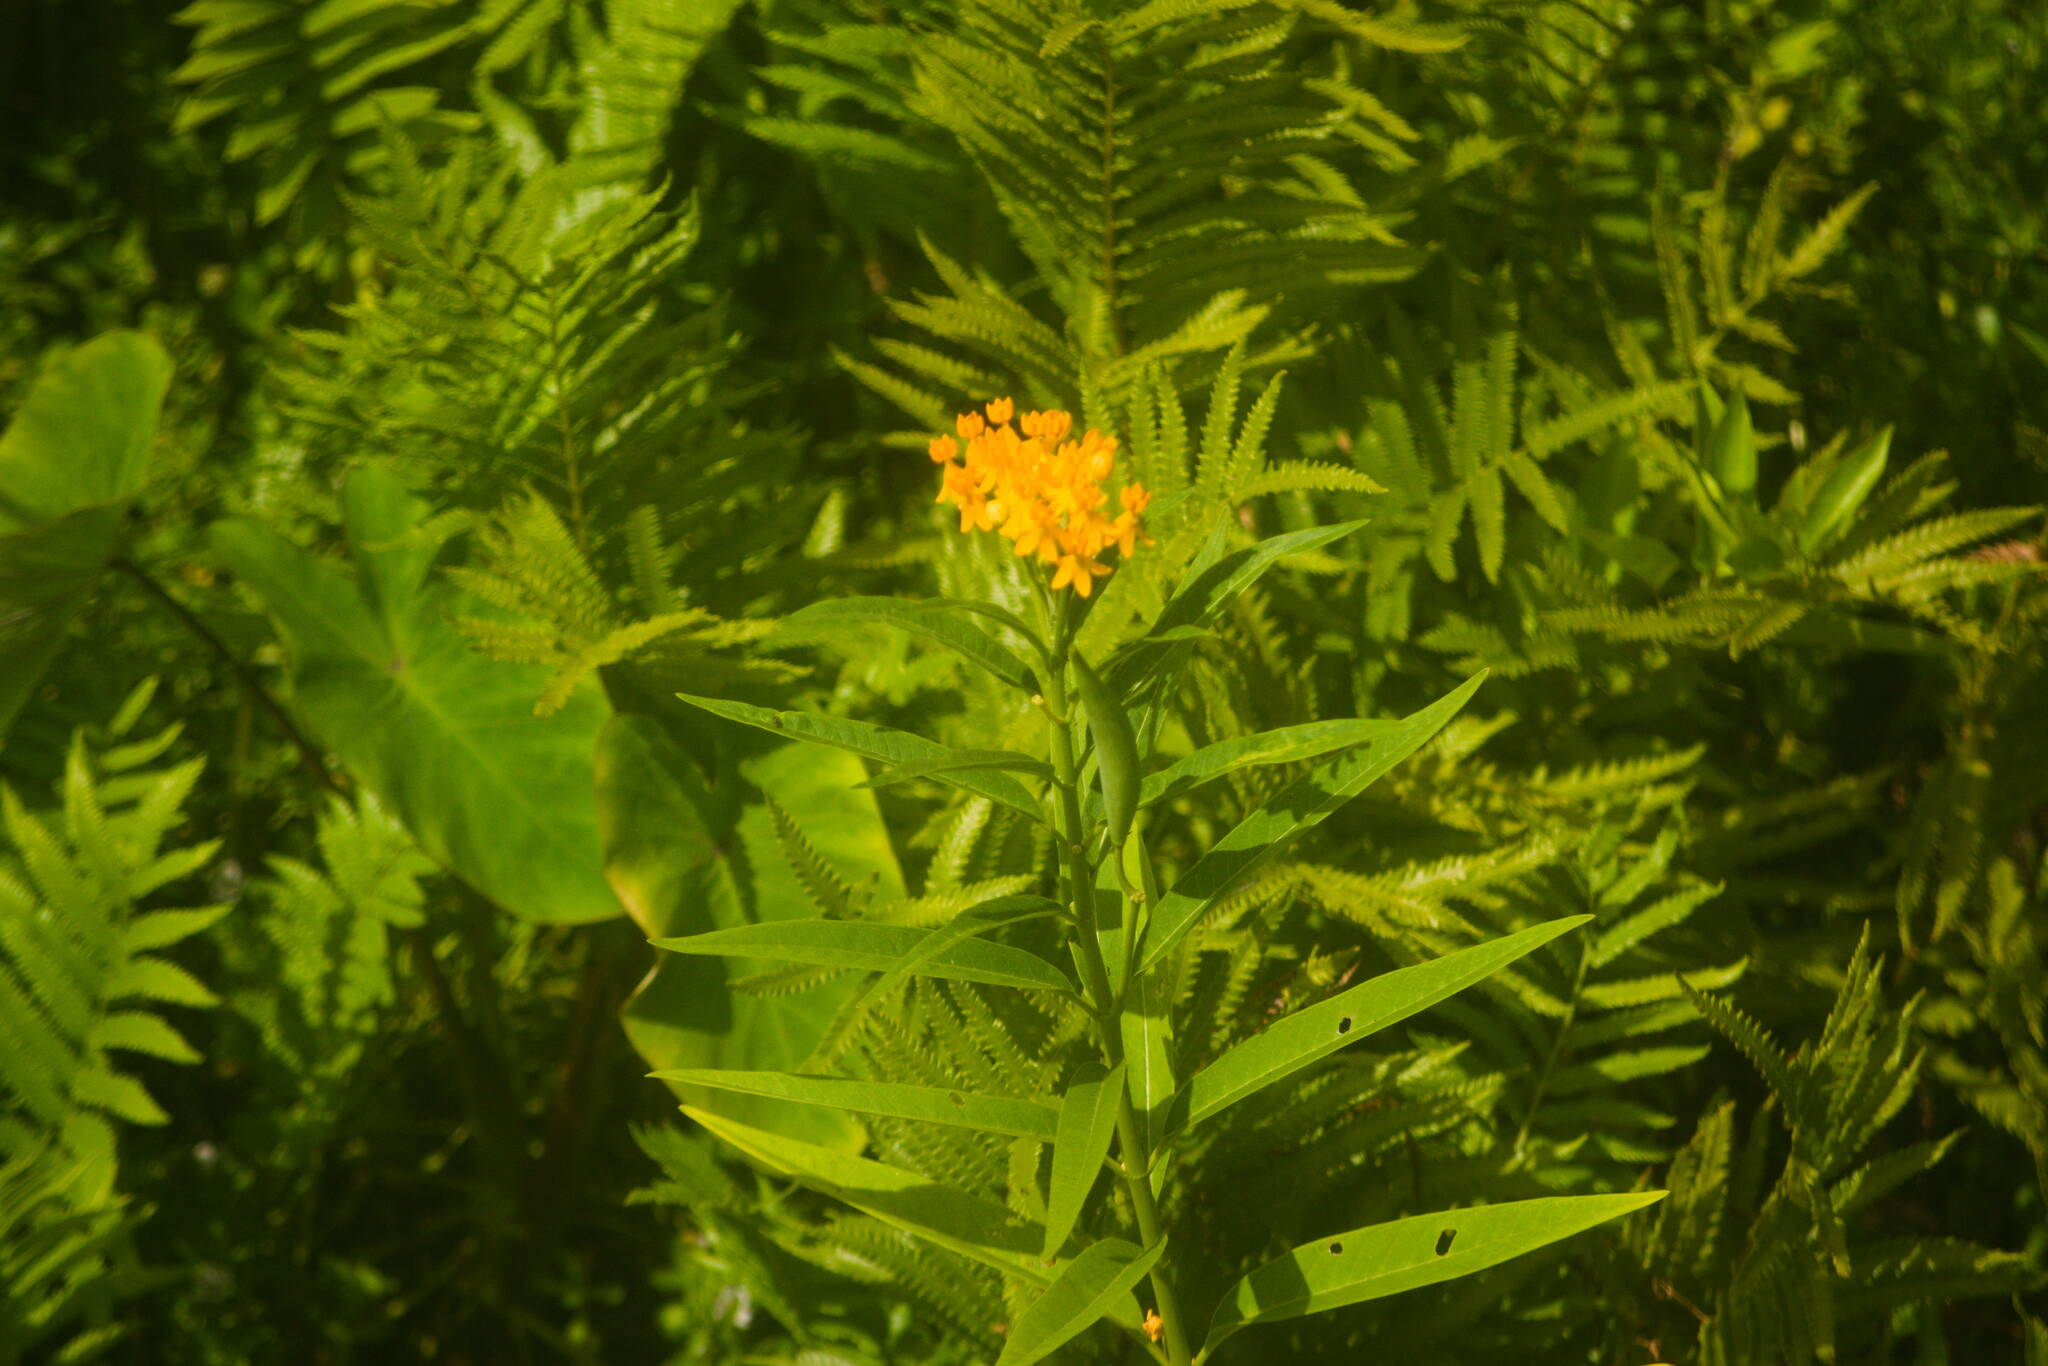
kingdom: Plantae
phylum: Tracheophyta
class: Magnoliopsida
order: Gentianales
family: Apocynaceae
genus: Asclepias
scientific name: Asclepias curassavica
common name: Bloodflower
